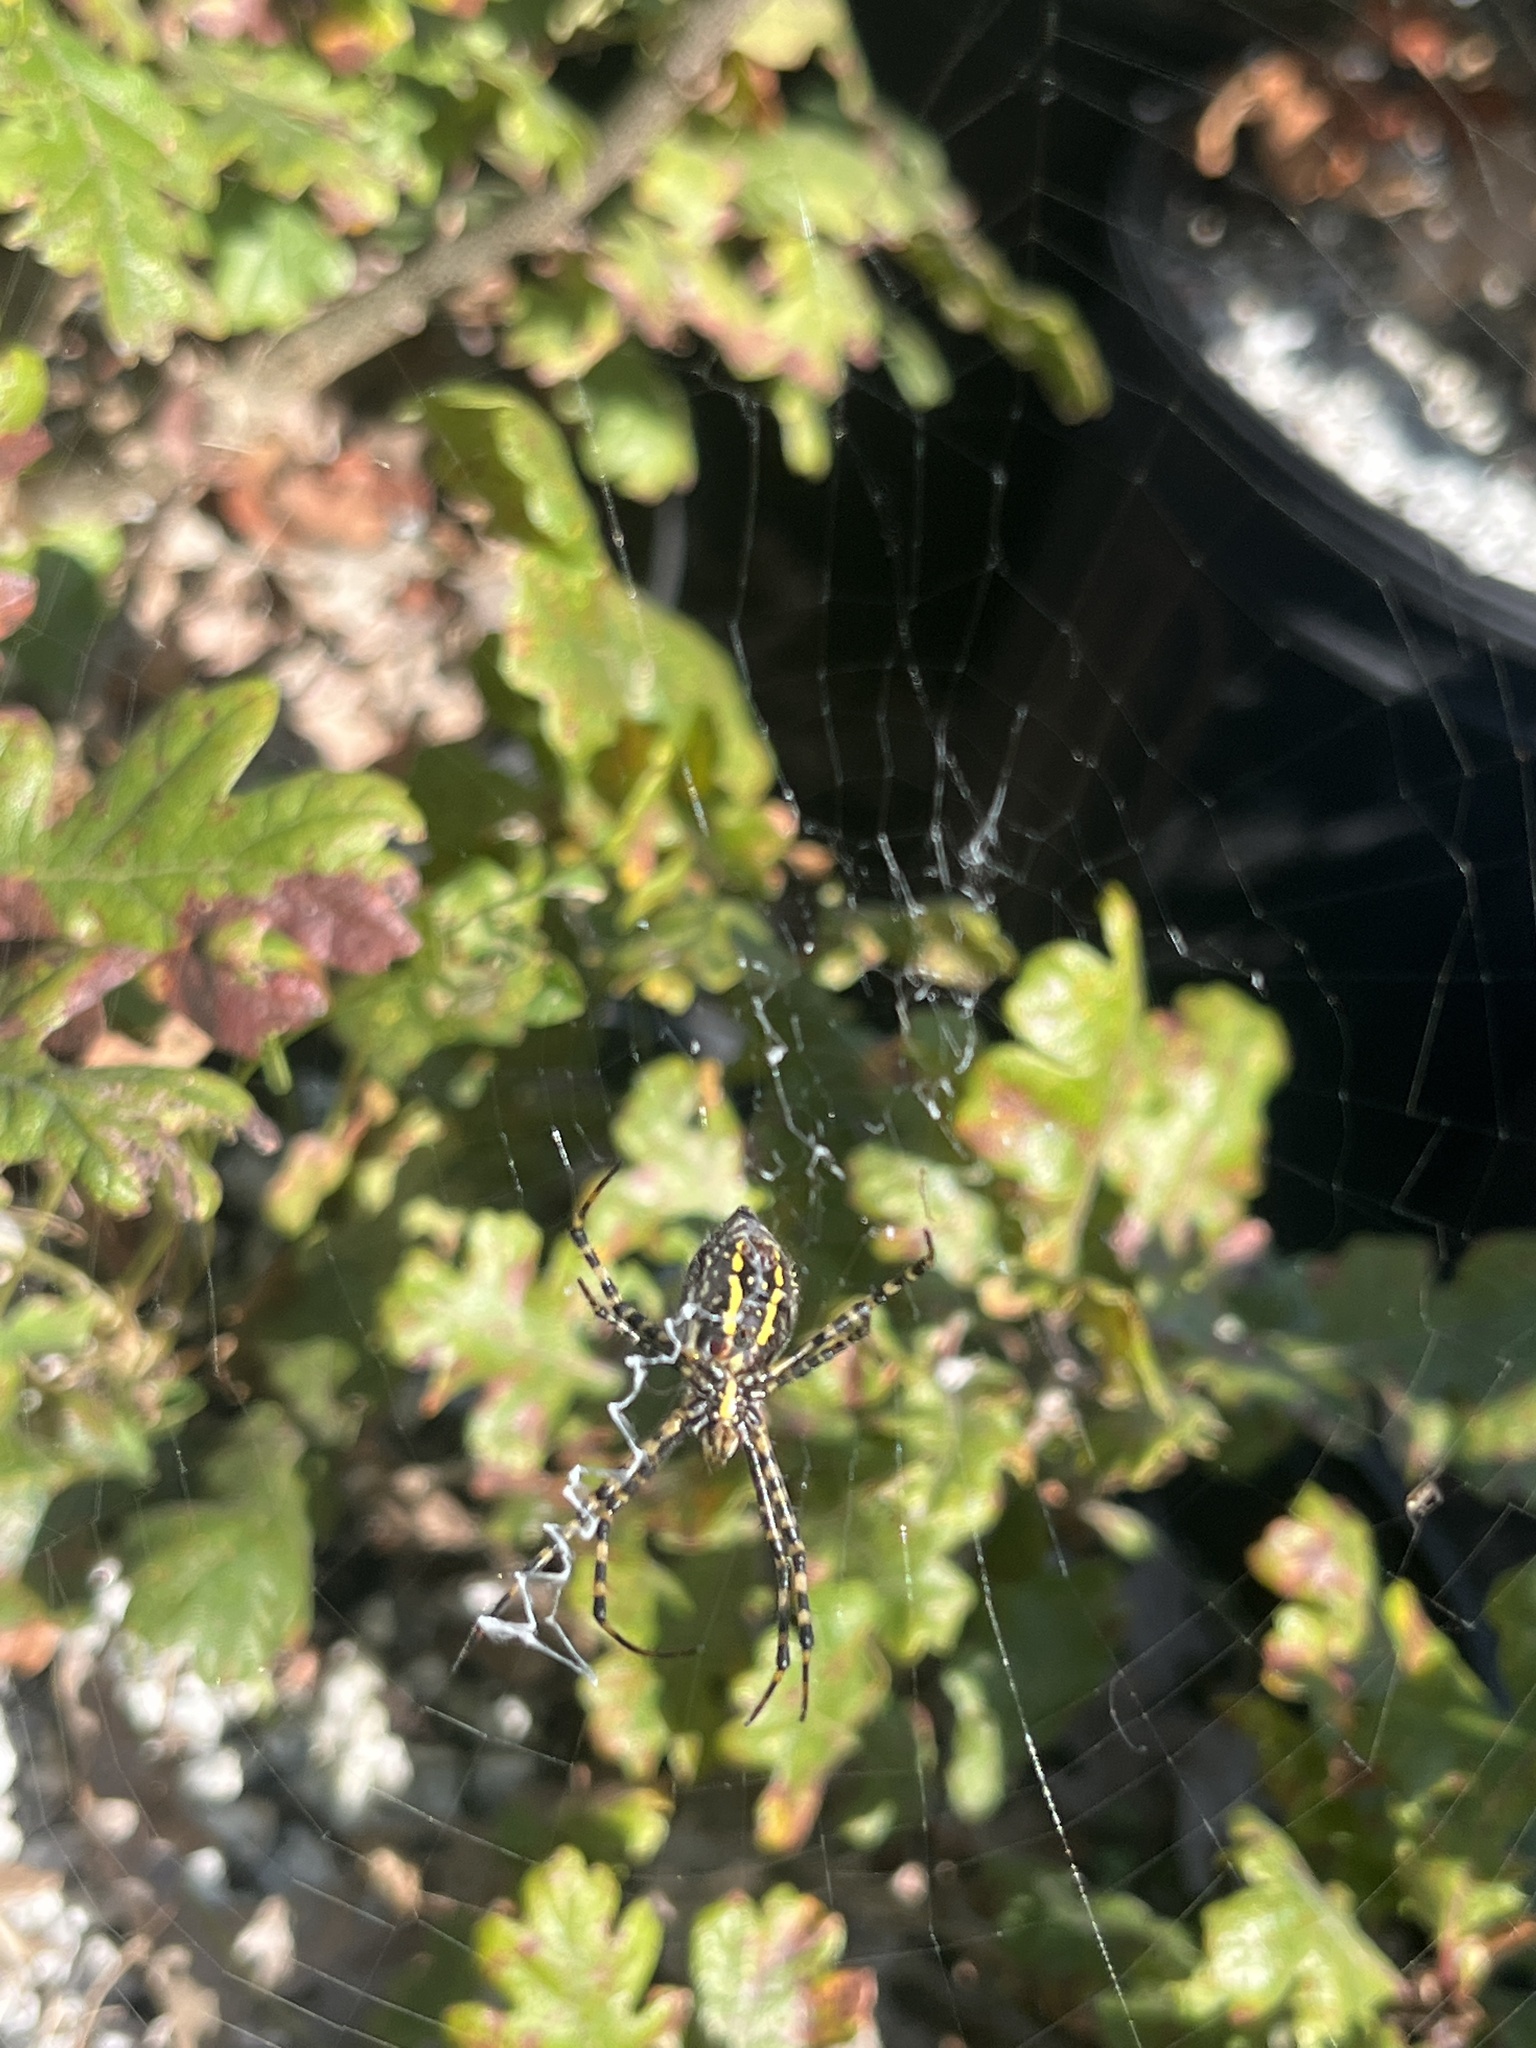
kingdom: Animalia
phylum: Arthropoda
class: Arachnida
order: Araneae
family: Araneidae
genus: Argiope
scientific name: Argiope trifasciata
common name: Banded garden spider
